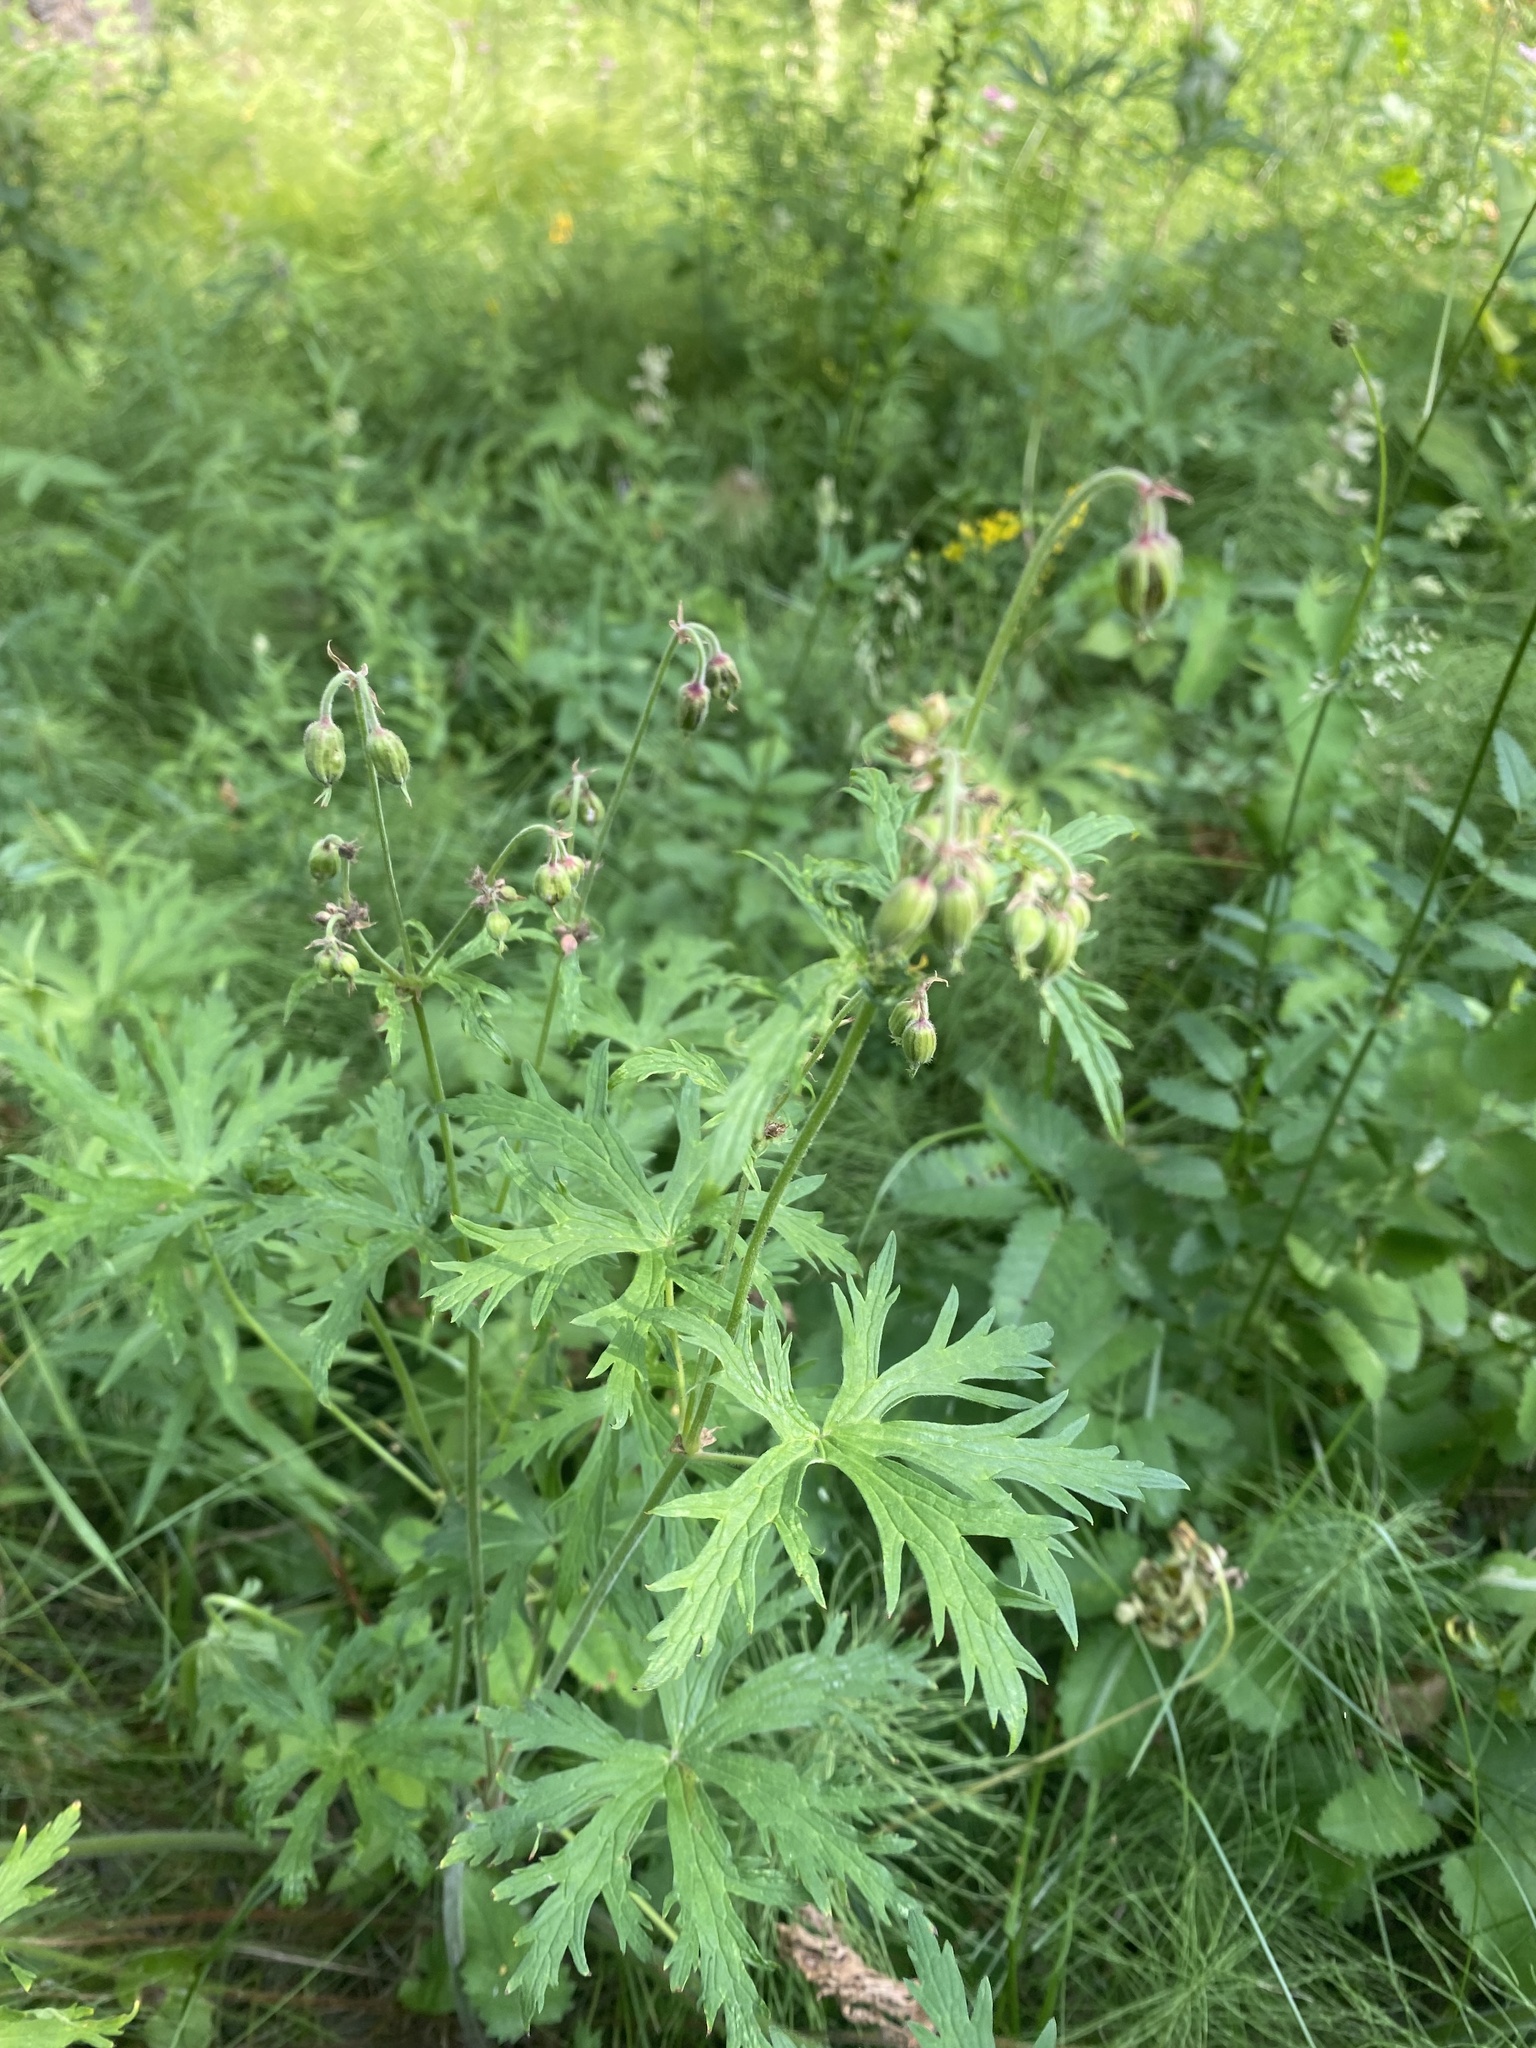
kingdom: Plantae
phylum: Tracheophyta
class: Magnoliopsida
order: Geraniales
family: Geraniaceae
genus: Geranium
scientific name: Geranium pratense
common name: Meadow crane's-bill
